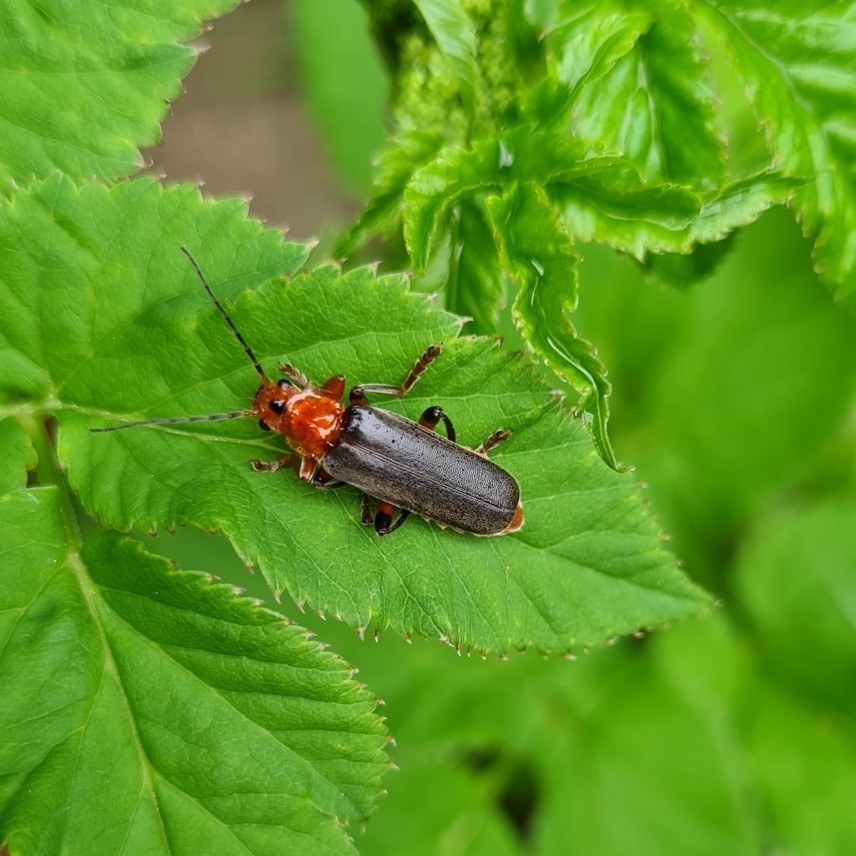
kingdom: Animalia
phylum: Arthropoda
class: Insecta
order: Coleoptera
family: Cantharidae
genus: Cantharis
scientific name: Cantharis livida
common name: Livid soldier beetle
